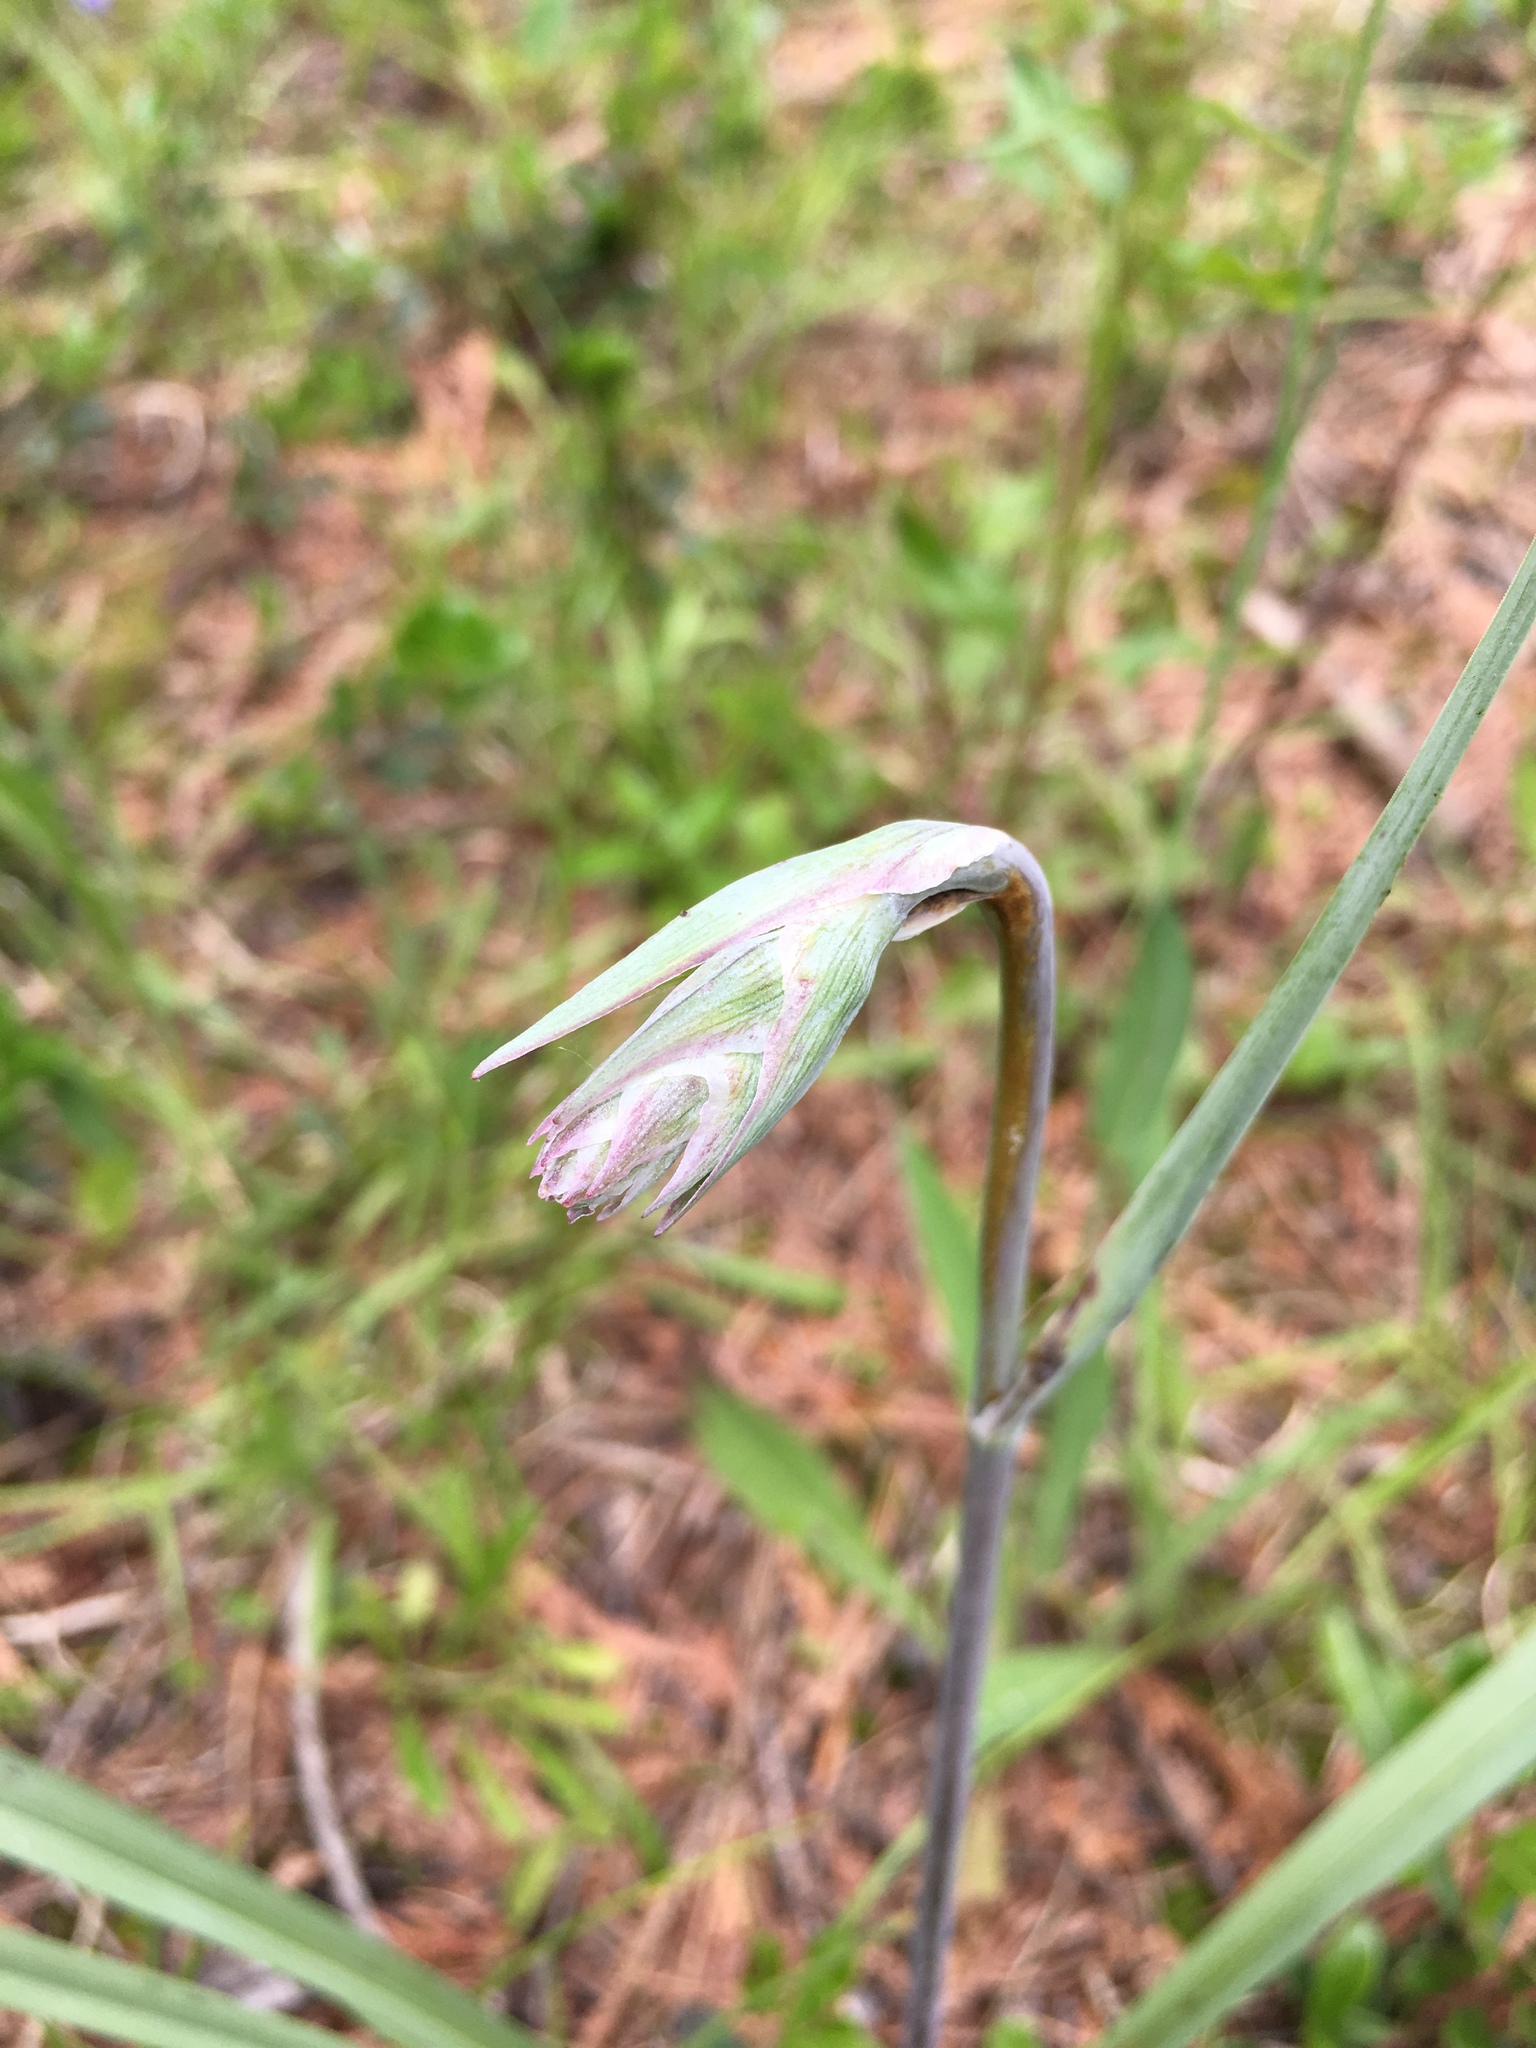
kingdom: Plantae
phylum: Tracheophyta
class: Liliopsida
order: Liliales
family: Melanthiaceae
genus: Anticlea
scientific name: Anticlea elegans
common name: Mountain death camas
